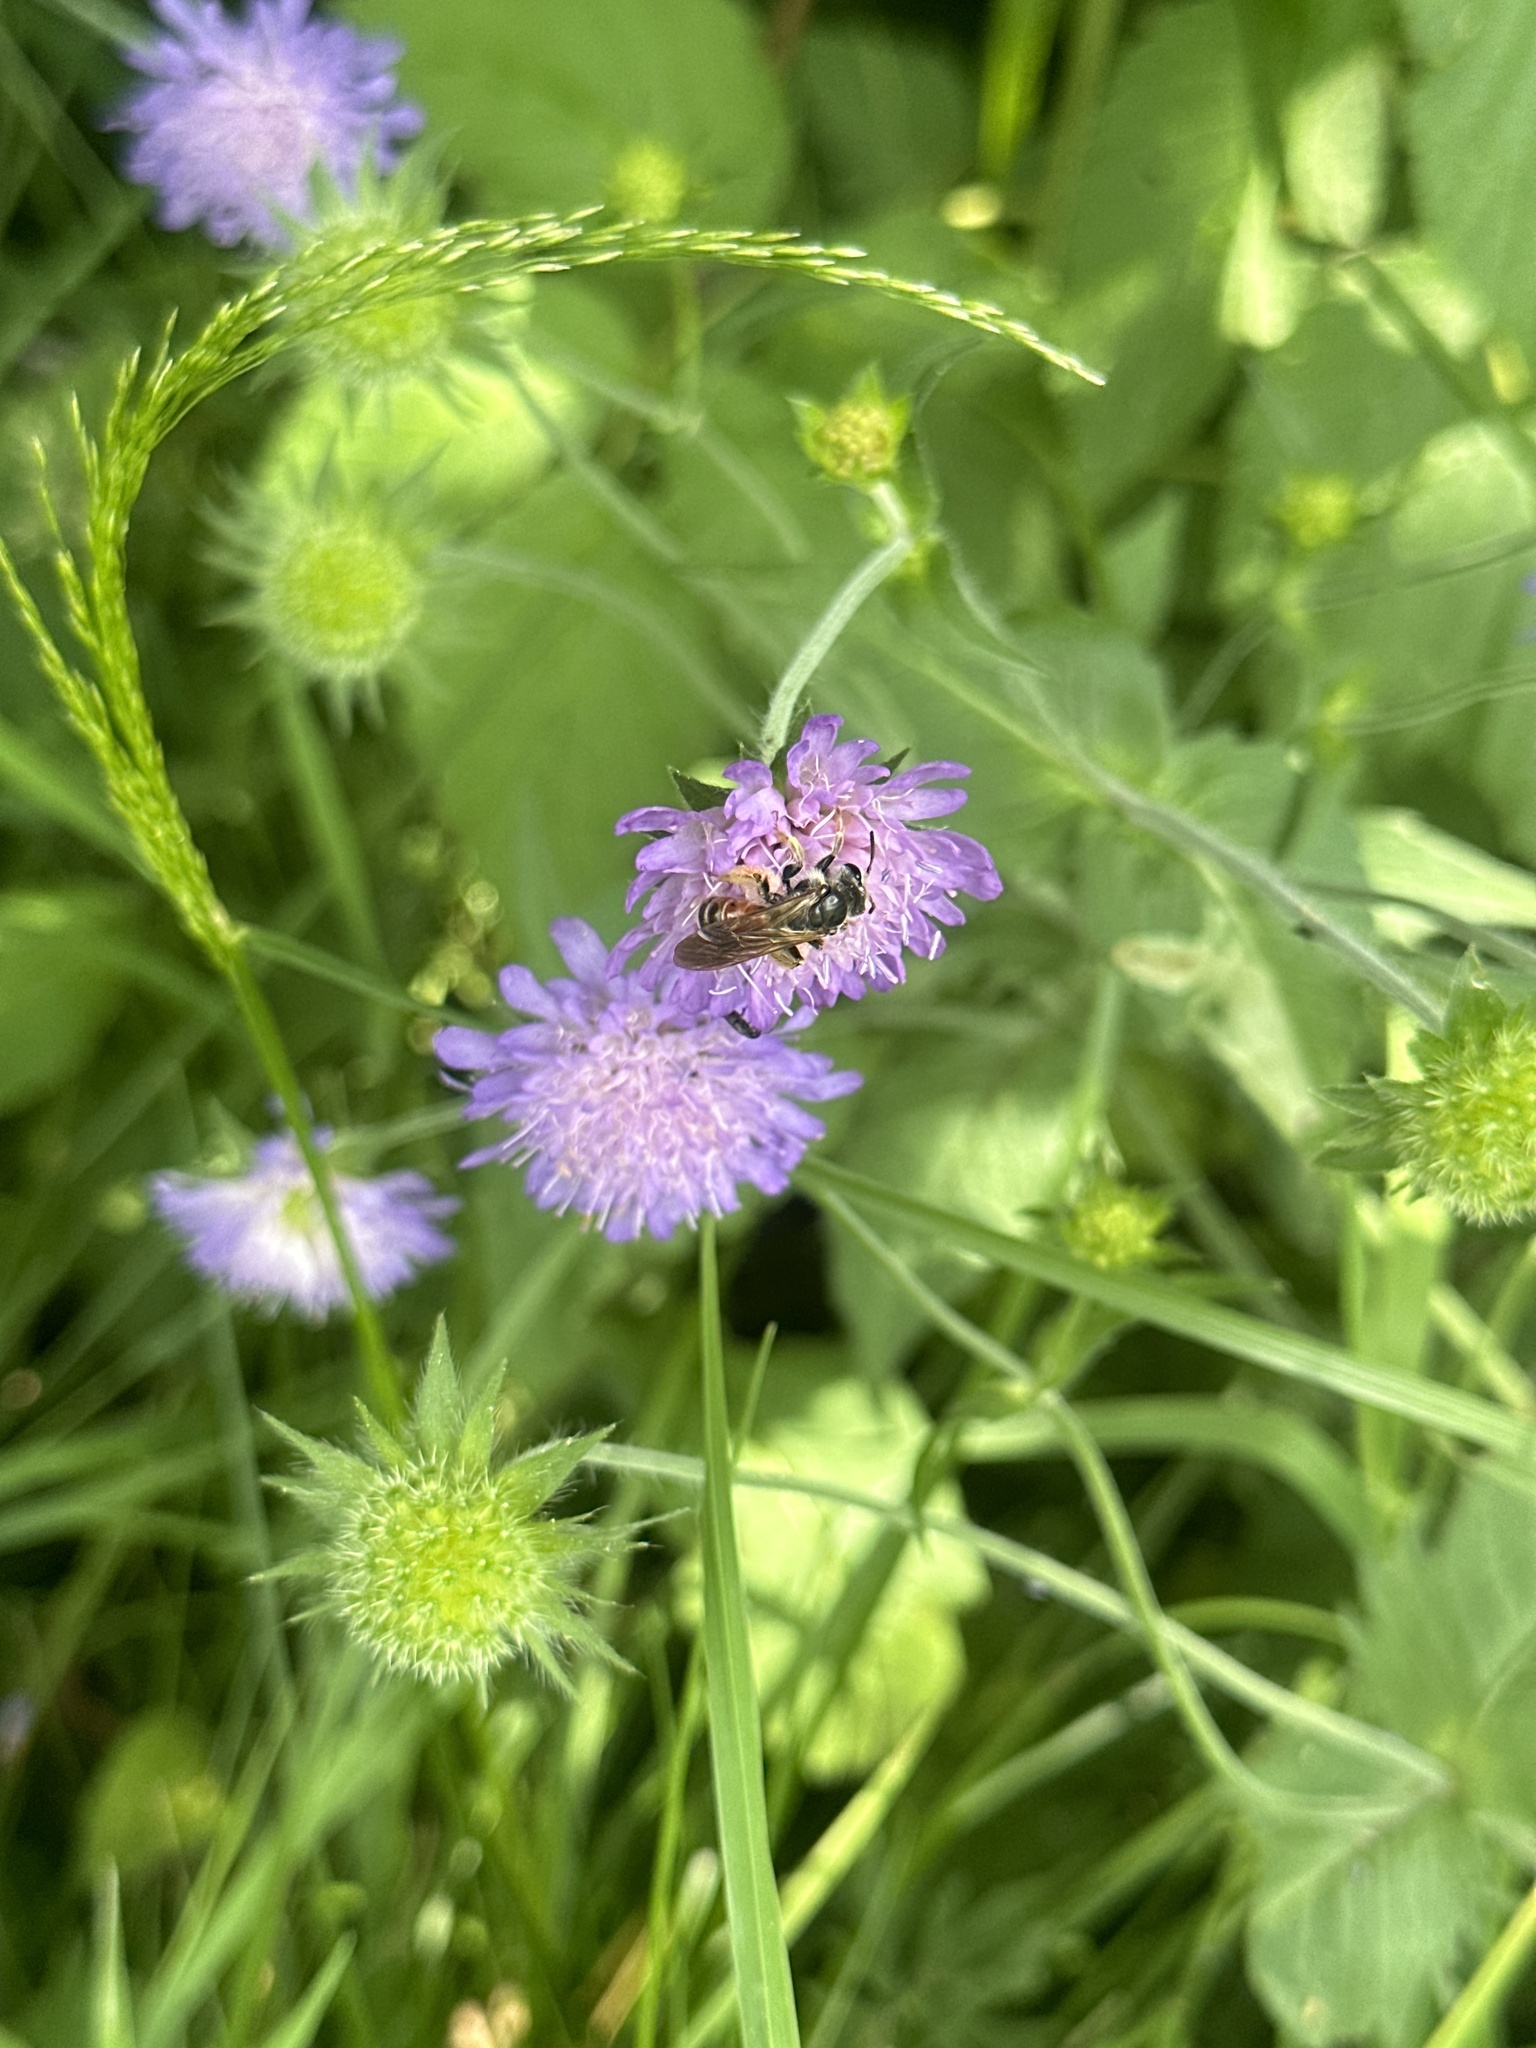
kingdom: Animalia
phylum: Arthropoda
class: Insecta
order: Hymenoptera
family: Andrenidae
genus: Andrena
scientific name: Andrena hattorfiana
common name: Large scabious mining bee
